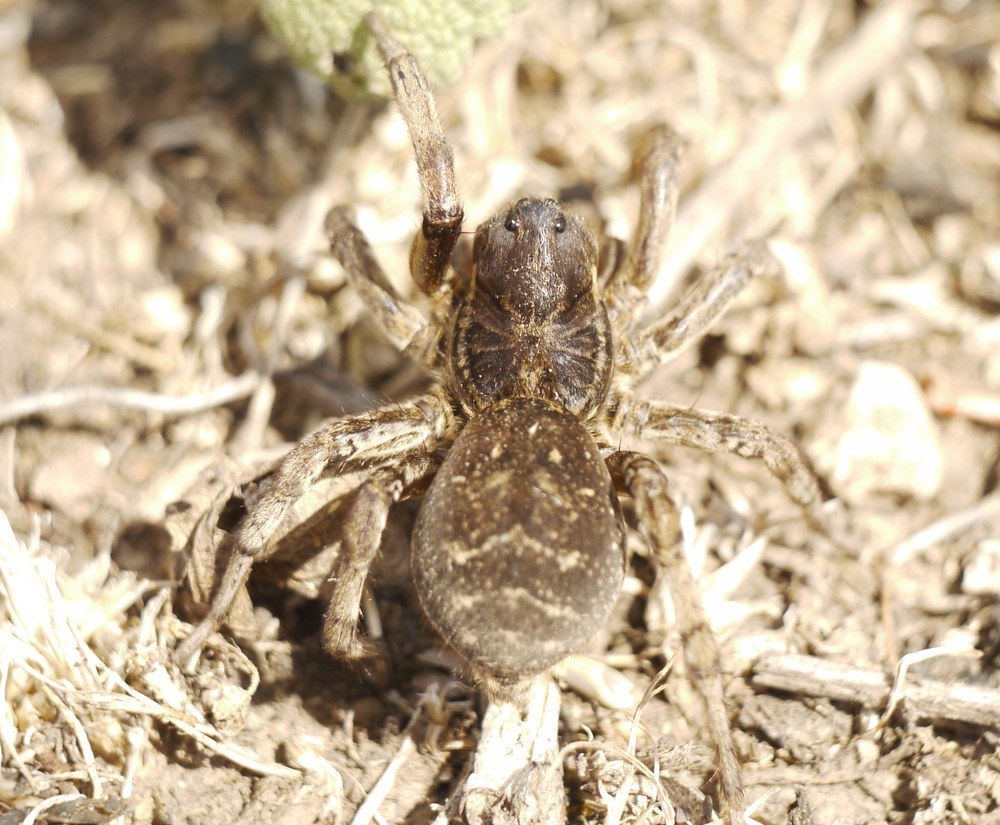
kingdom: Animalia
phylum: Arthropoda
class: Arachnida
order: Araneae
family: Lycosidae
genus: Geolycosa
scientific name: Geolycosa vultuosa
